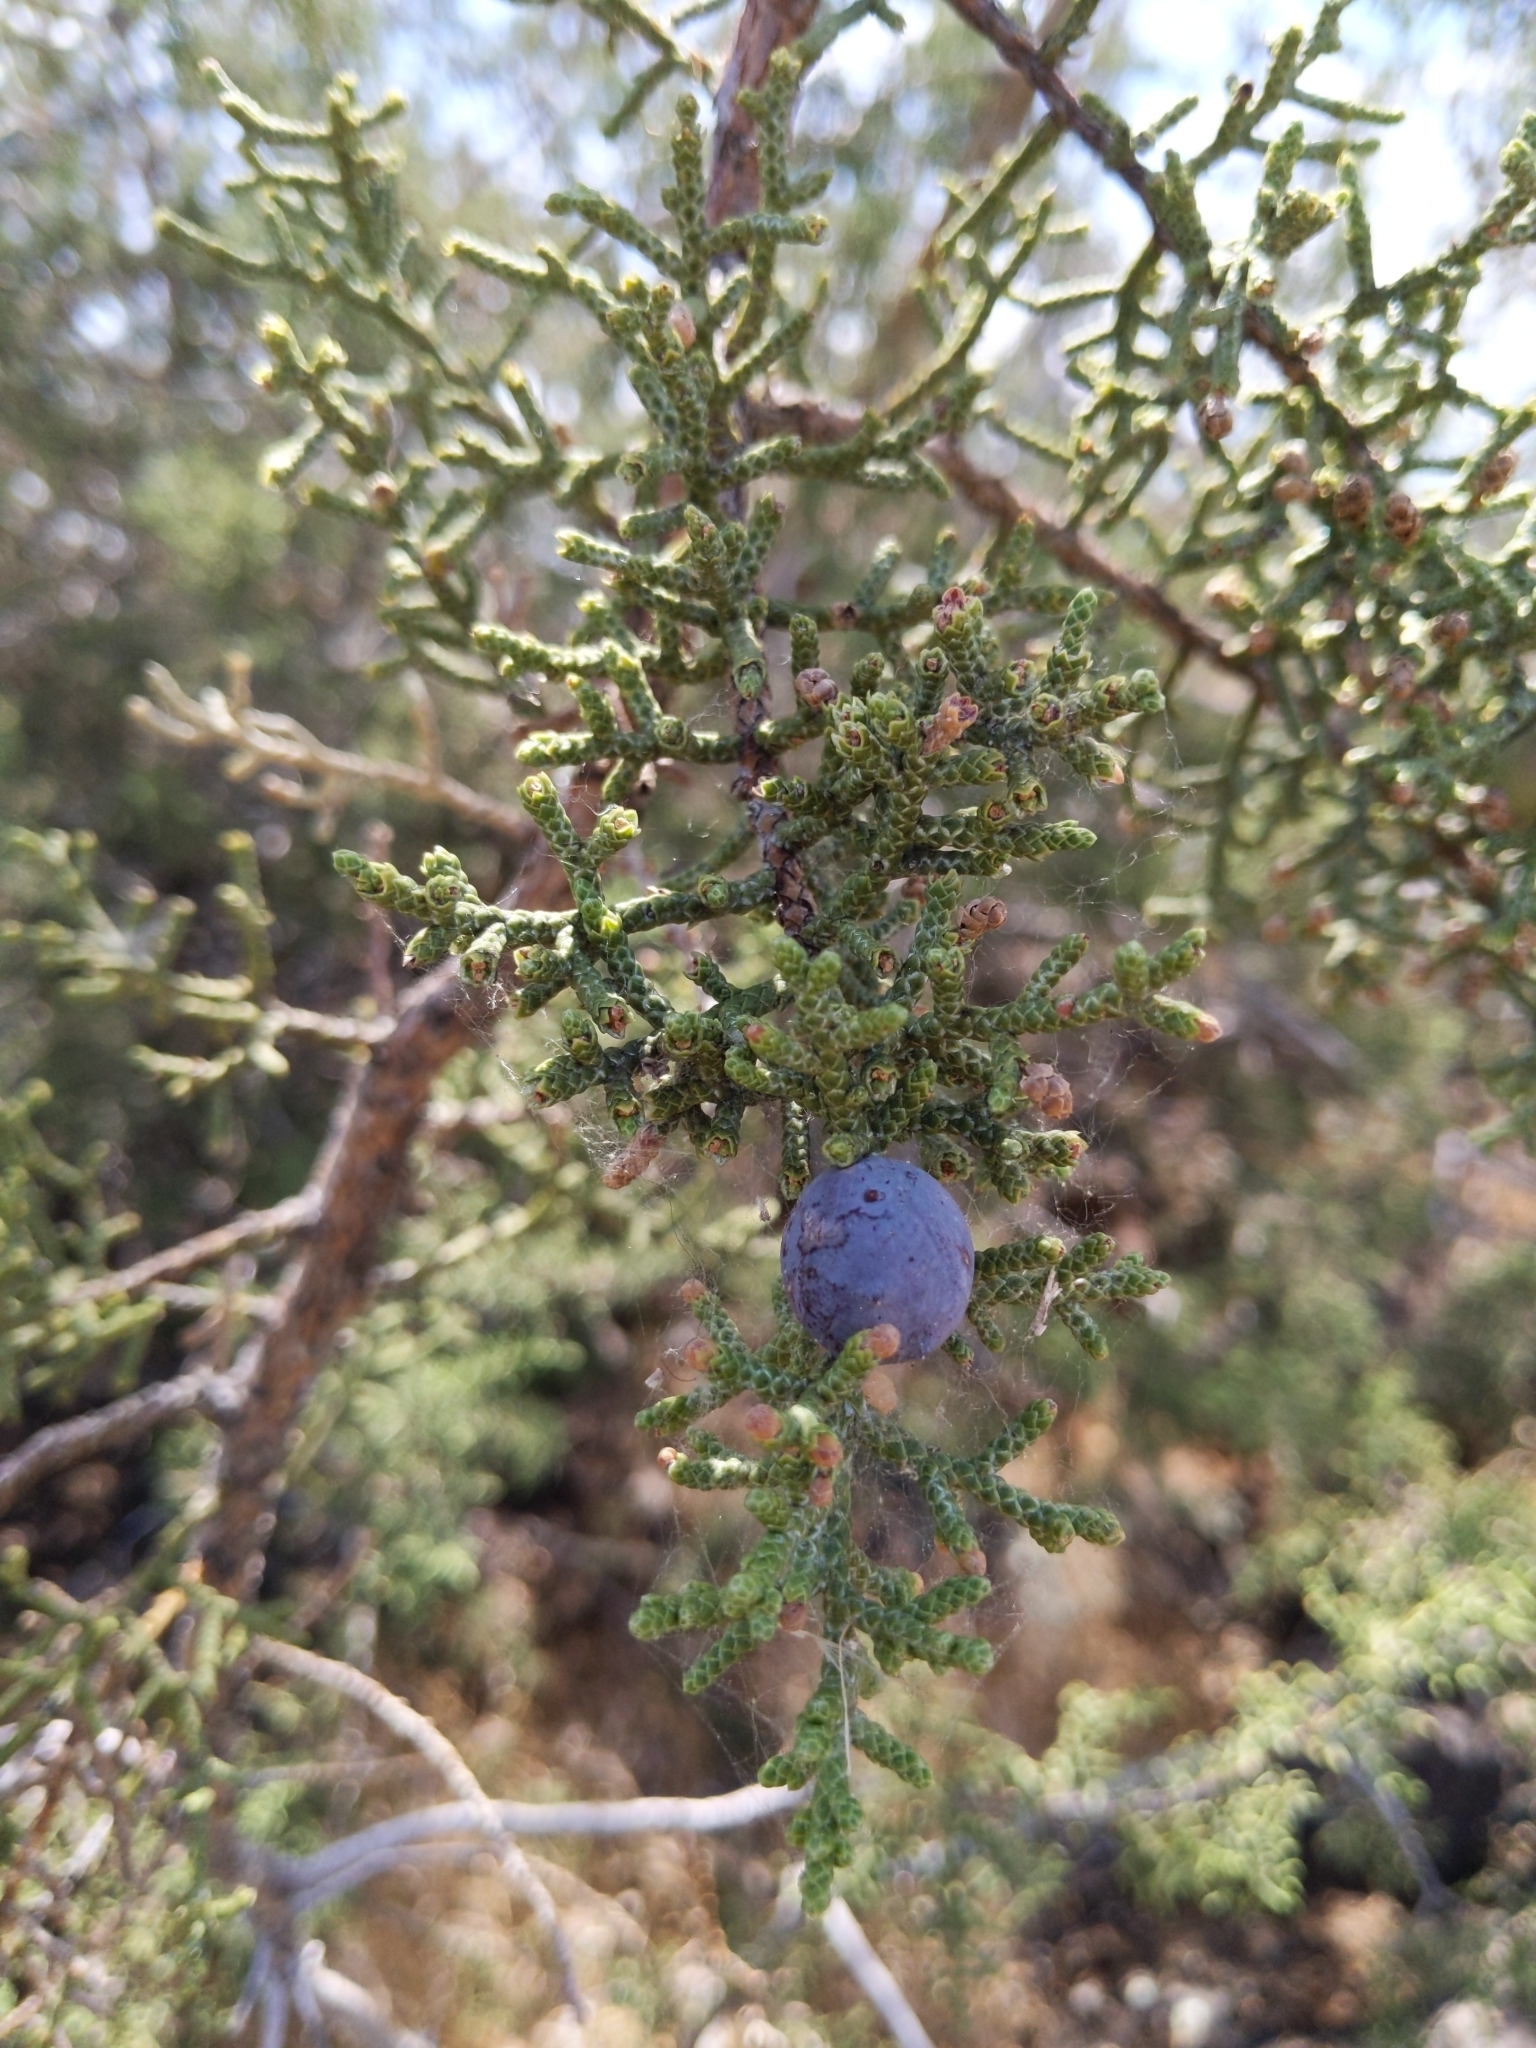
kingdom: Plantae
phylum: Tracheophyta
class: Pinopsida
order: Pinales
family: Cupressaceae
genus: Juniperus
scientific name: Juniperus californica
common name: California juniper
